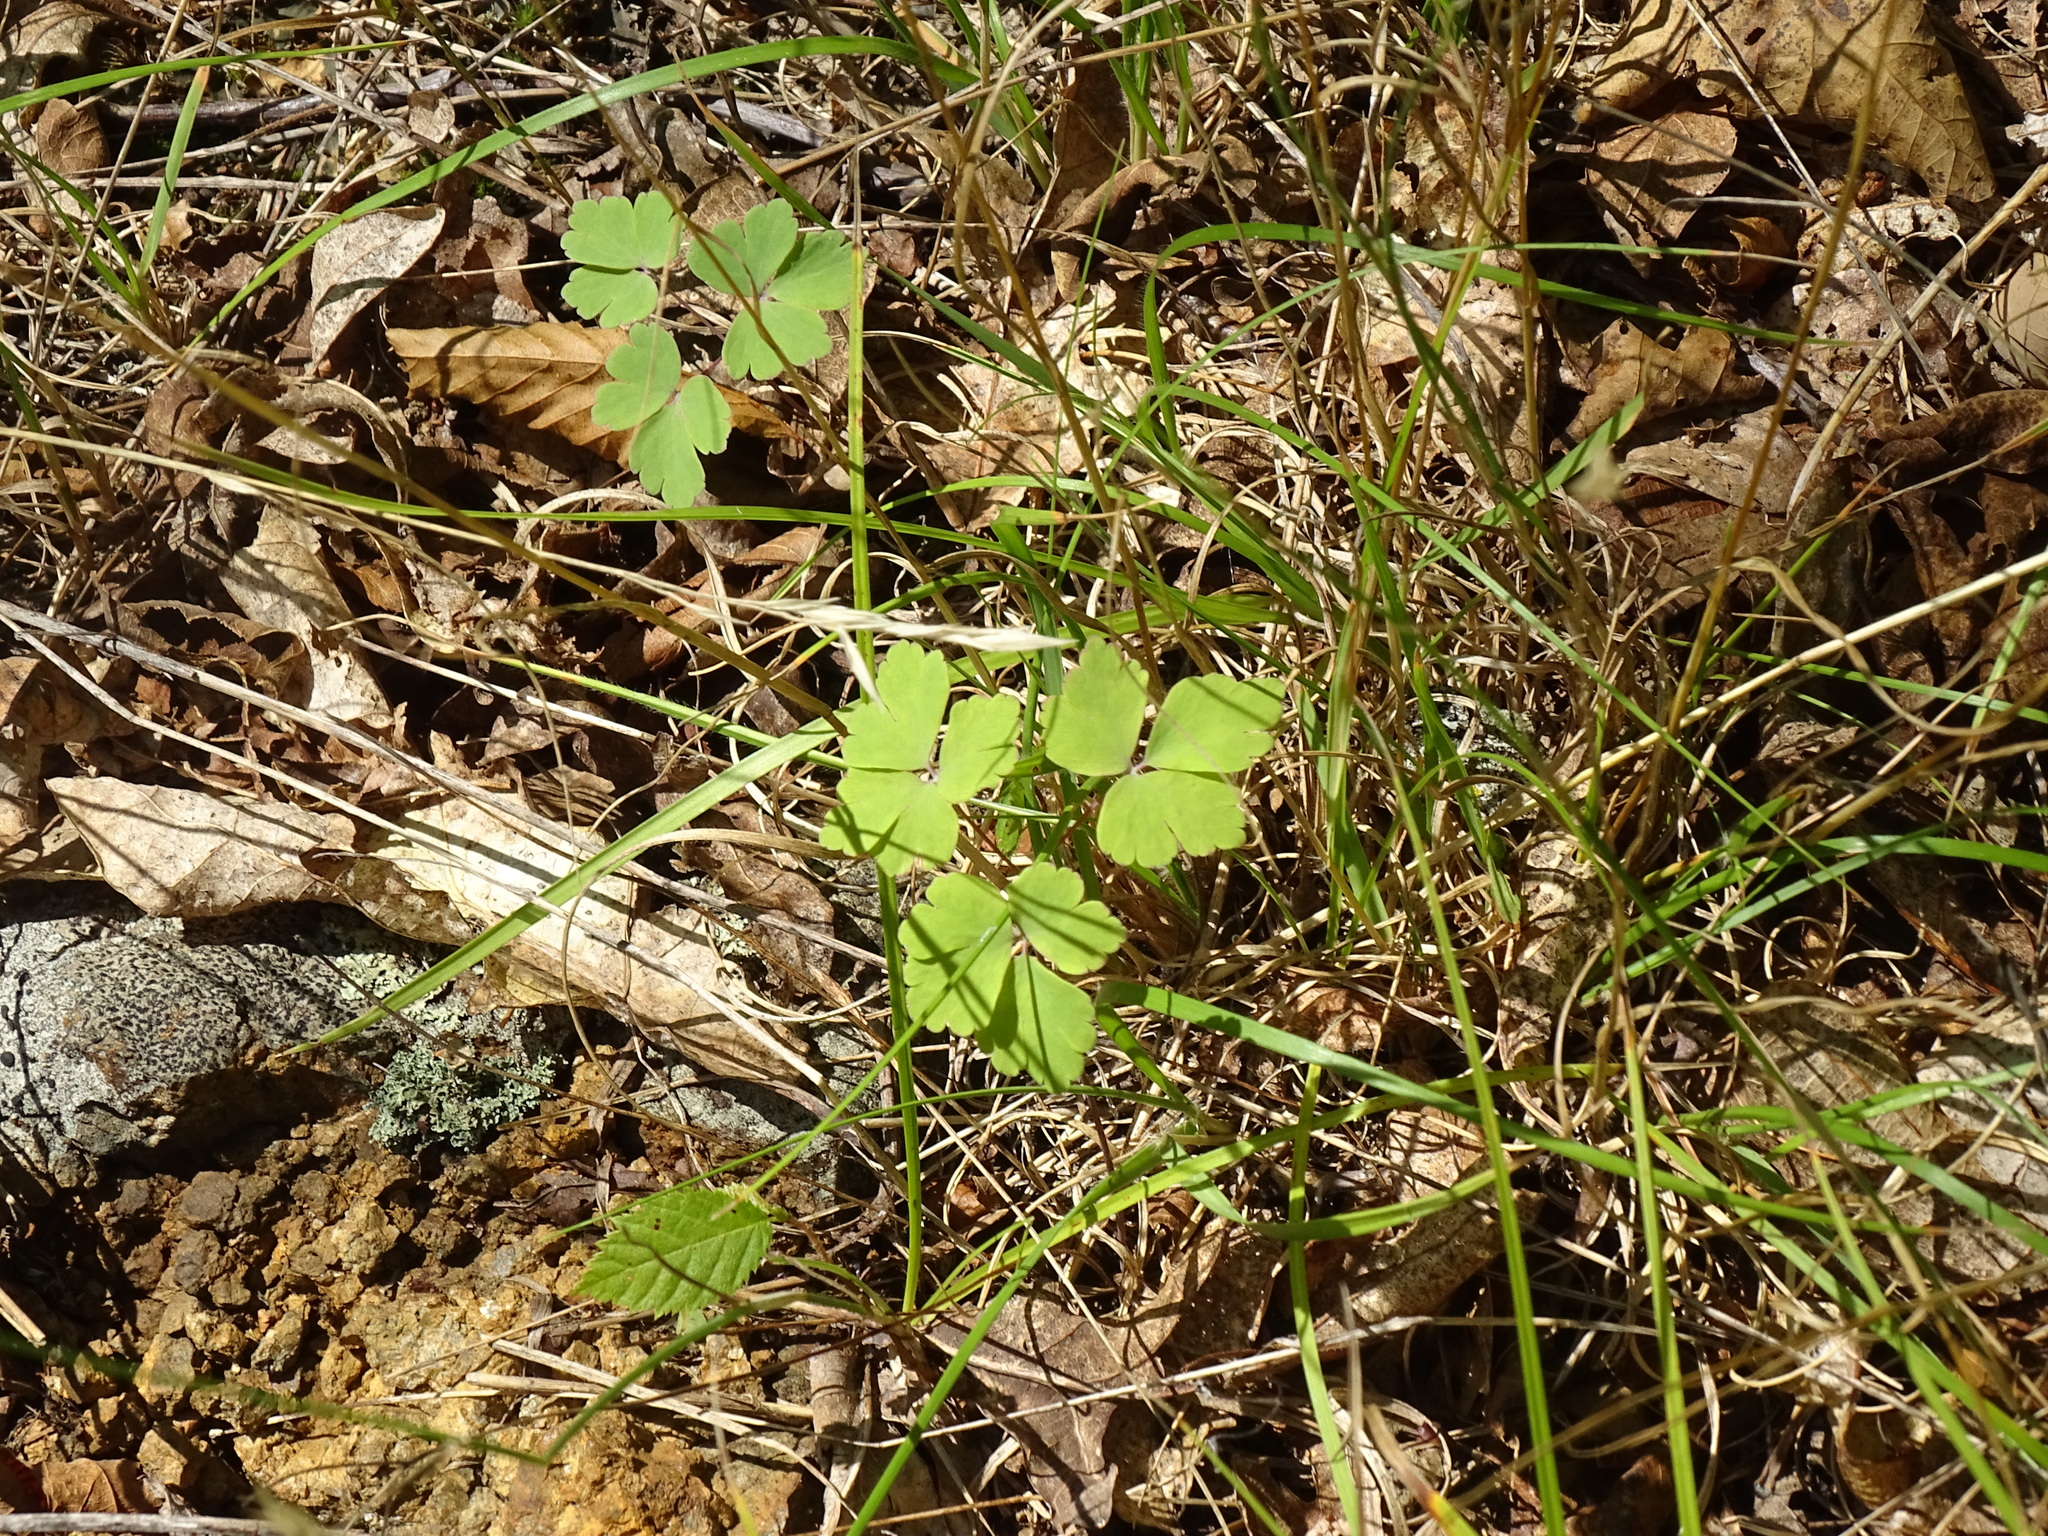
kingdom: Plantae
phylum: Tracheophyta
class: Magnoliopsida
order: Ranunculales
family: Ranunculaceae
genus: Aquilegia
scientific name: Aquilegia canadensis
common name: American columbine
